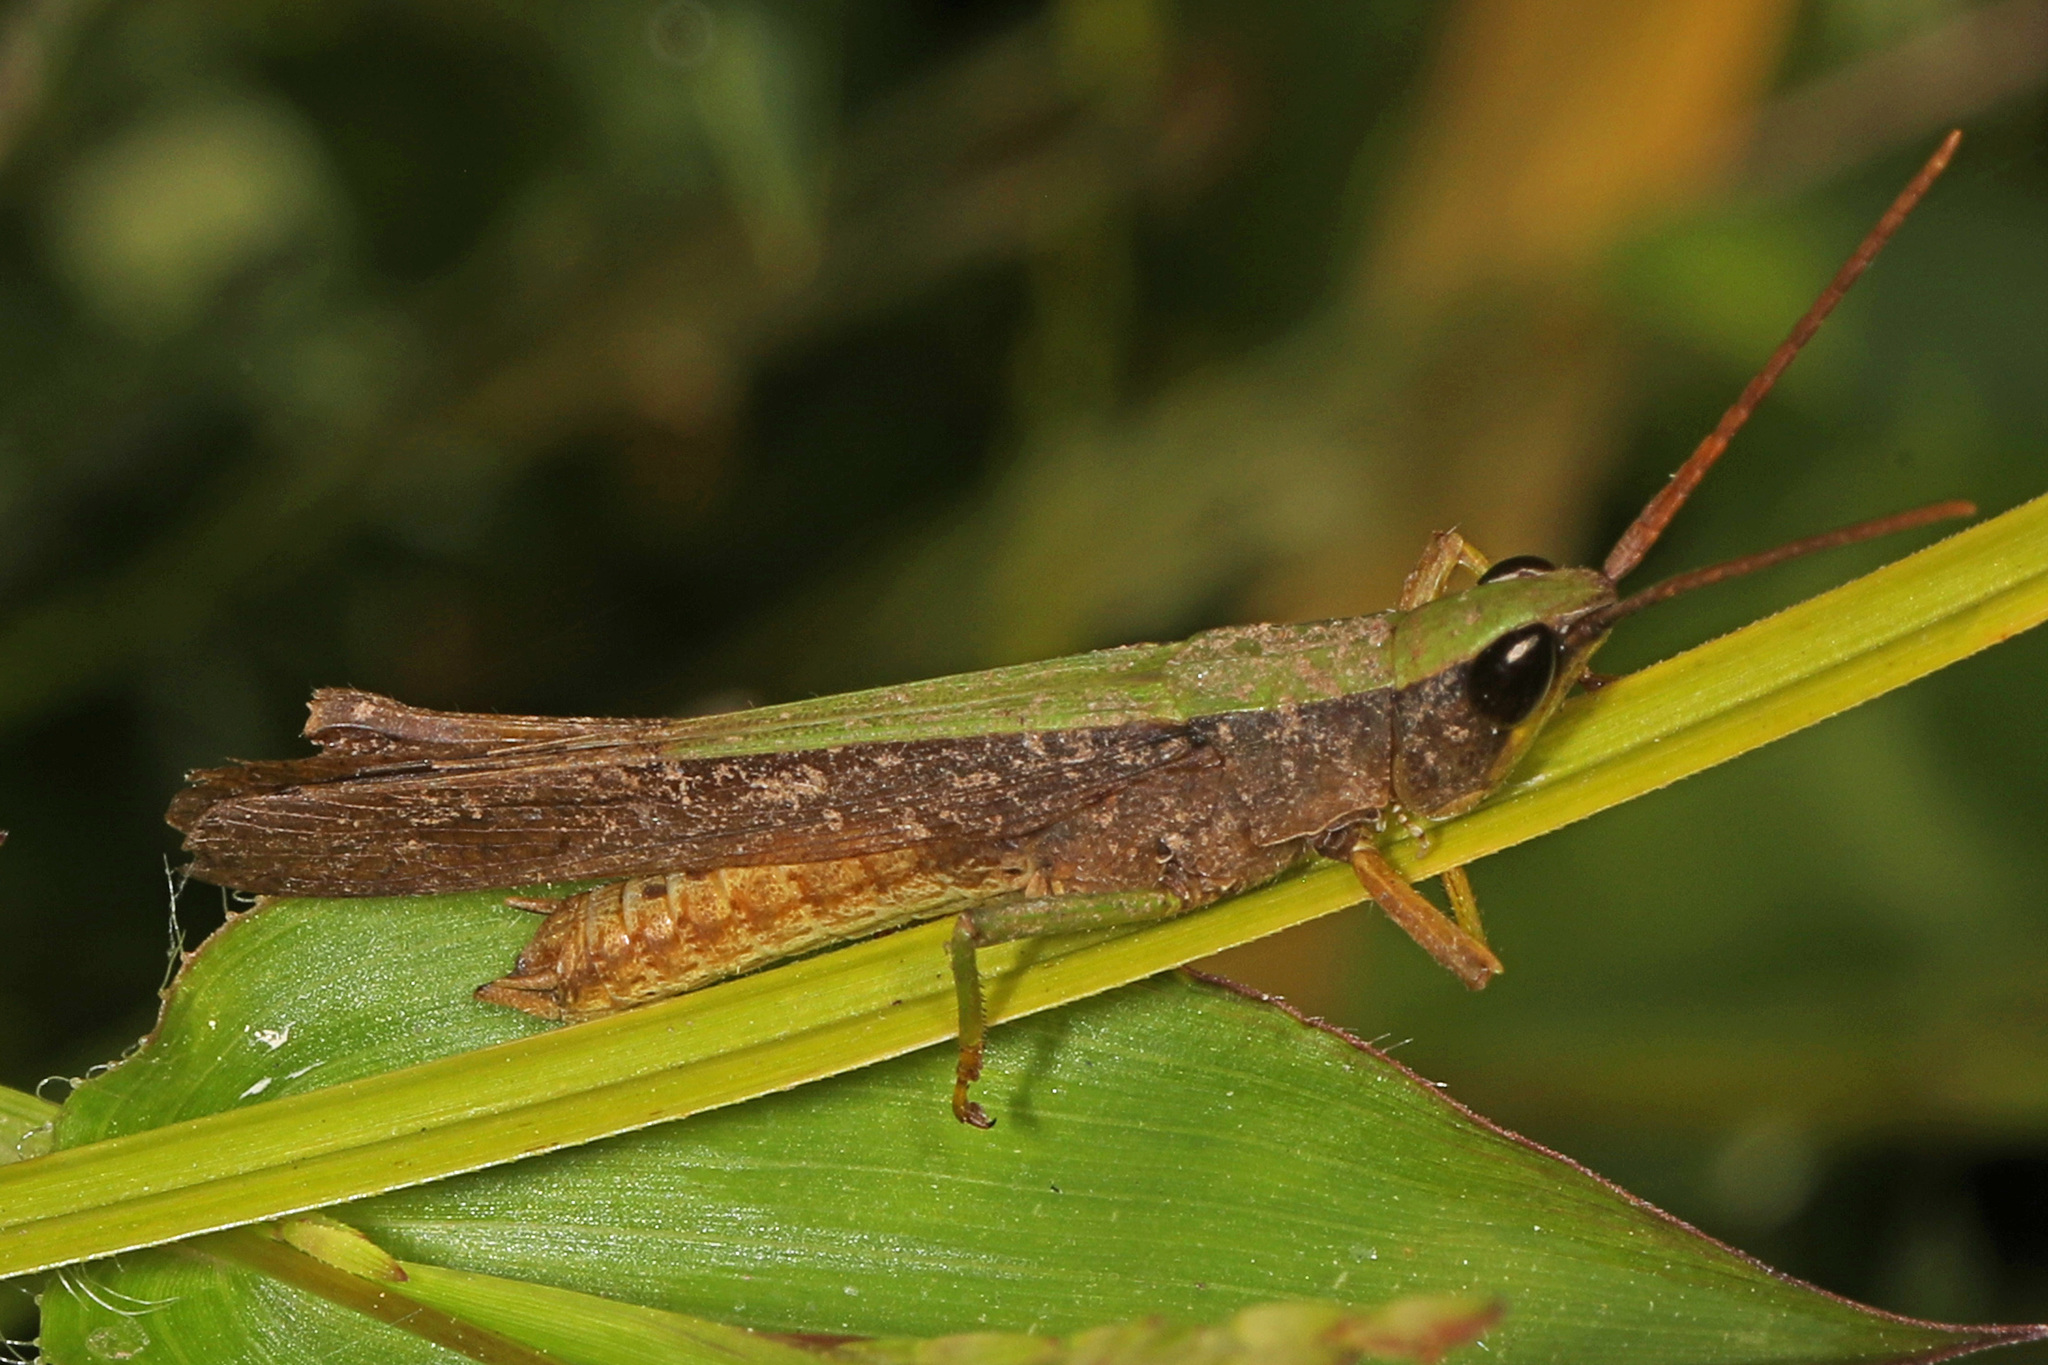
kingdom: Animalia
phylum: Arthropoda
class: Insecta
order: Orthoptera
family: Acrididae
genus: Metaleptea
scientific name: Metaleptea brevicornis
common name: Clipped-wing grasshopper
